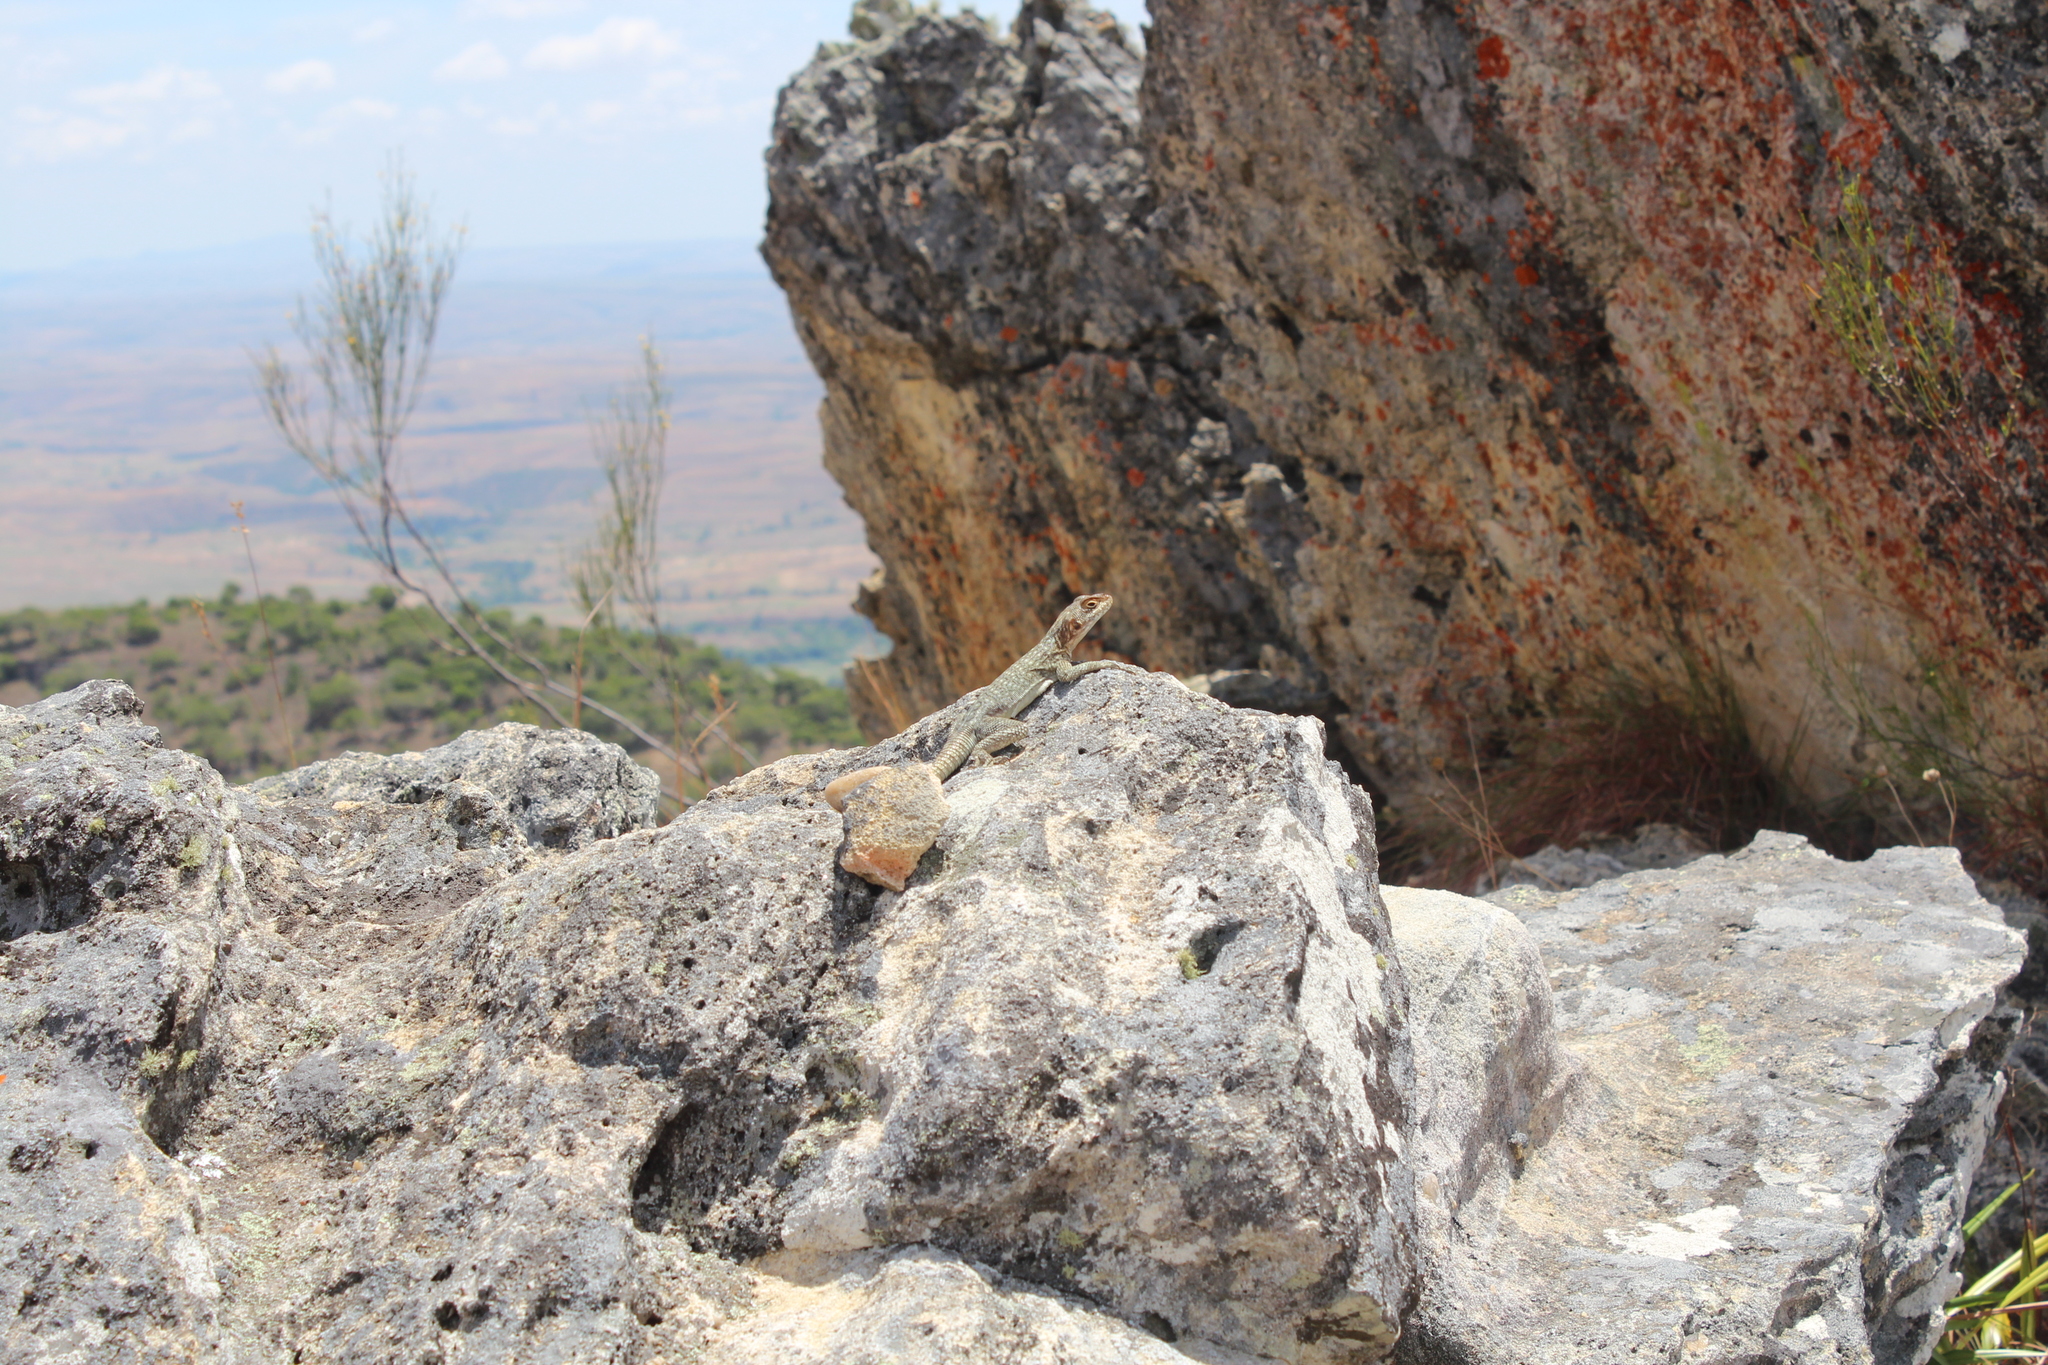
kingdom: Animalia
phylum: Chordata
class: Squamata
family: Opluridae
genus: Oplurus
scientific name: Oplurus quadrimaculatus
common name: Duméril's madagascar swift
